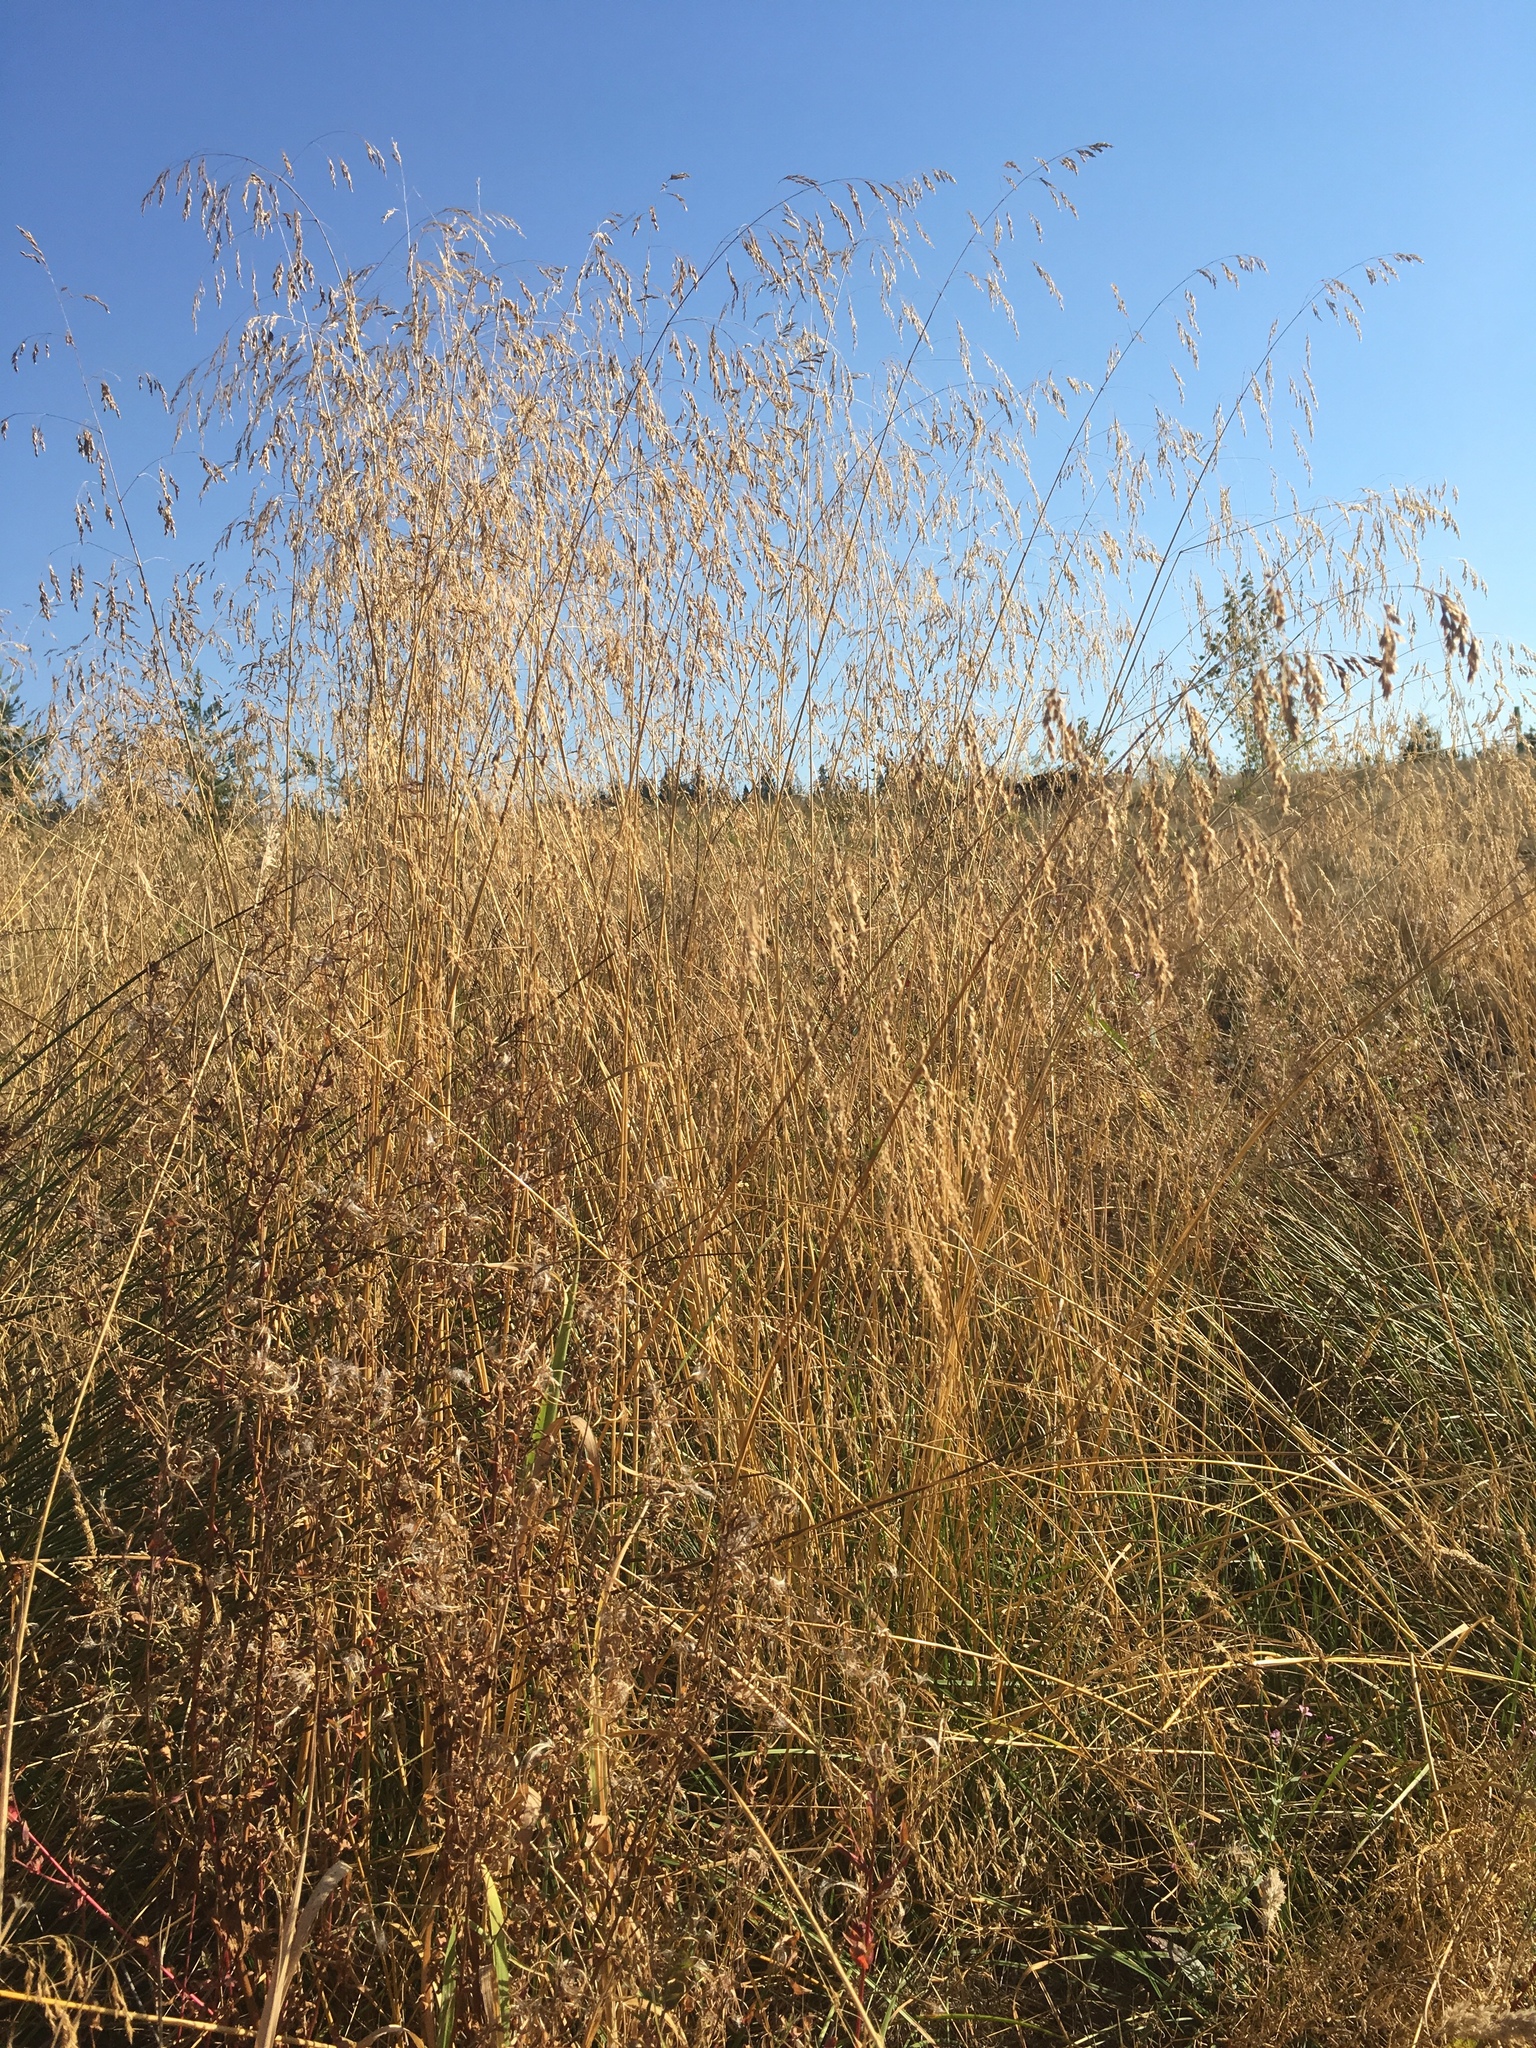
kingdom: Plantae
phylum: Tracheophyta
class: Liliopsida
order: Poales
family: Poaceae
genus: Deschampsia
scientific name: Deschampsia cespitosa
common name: Tufted hair-grass
